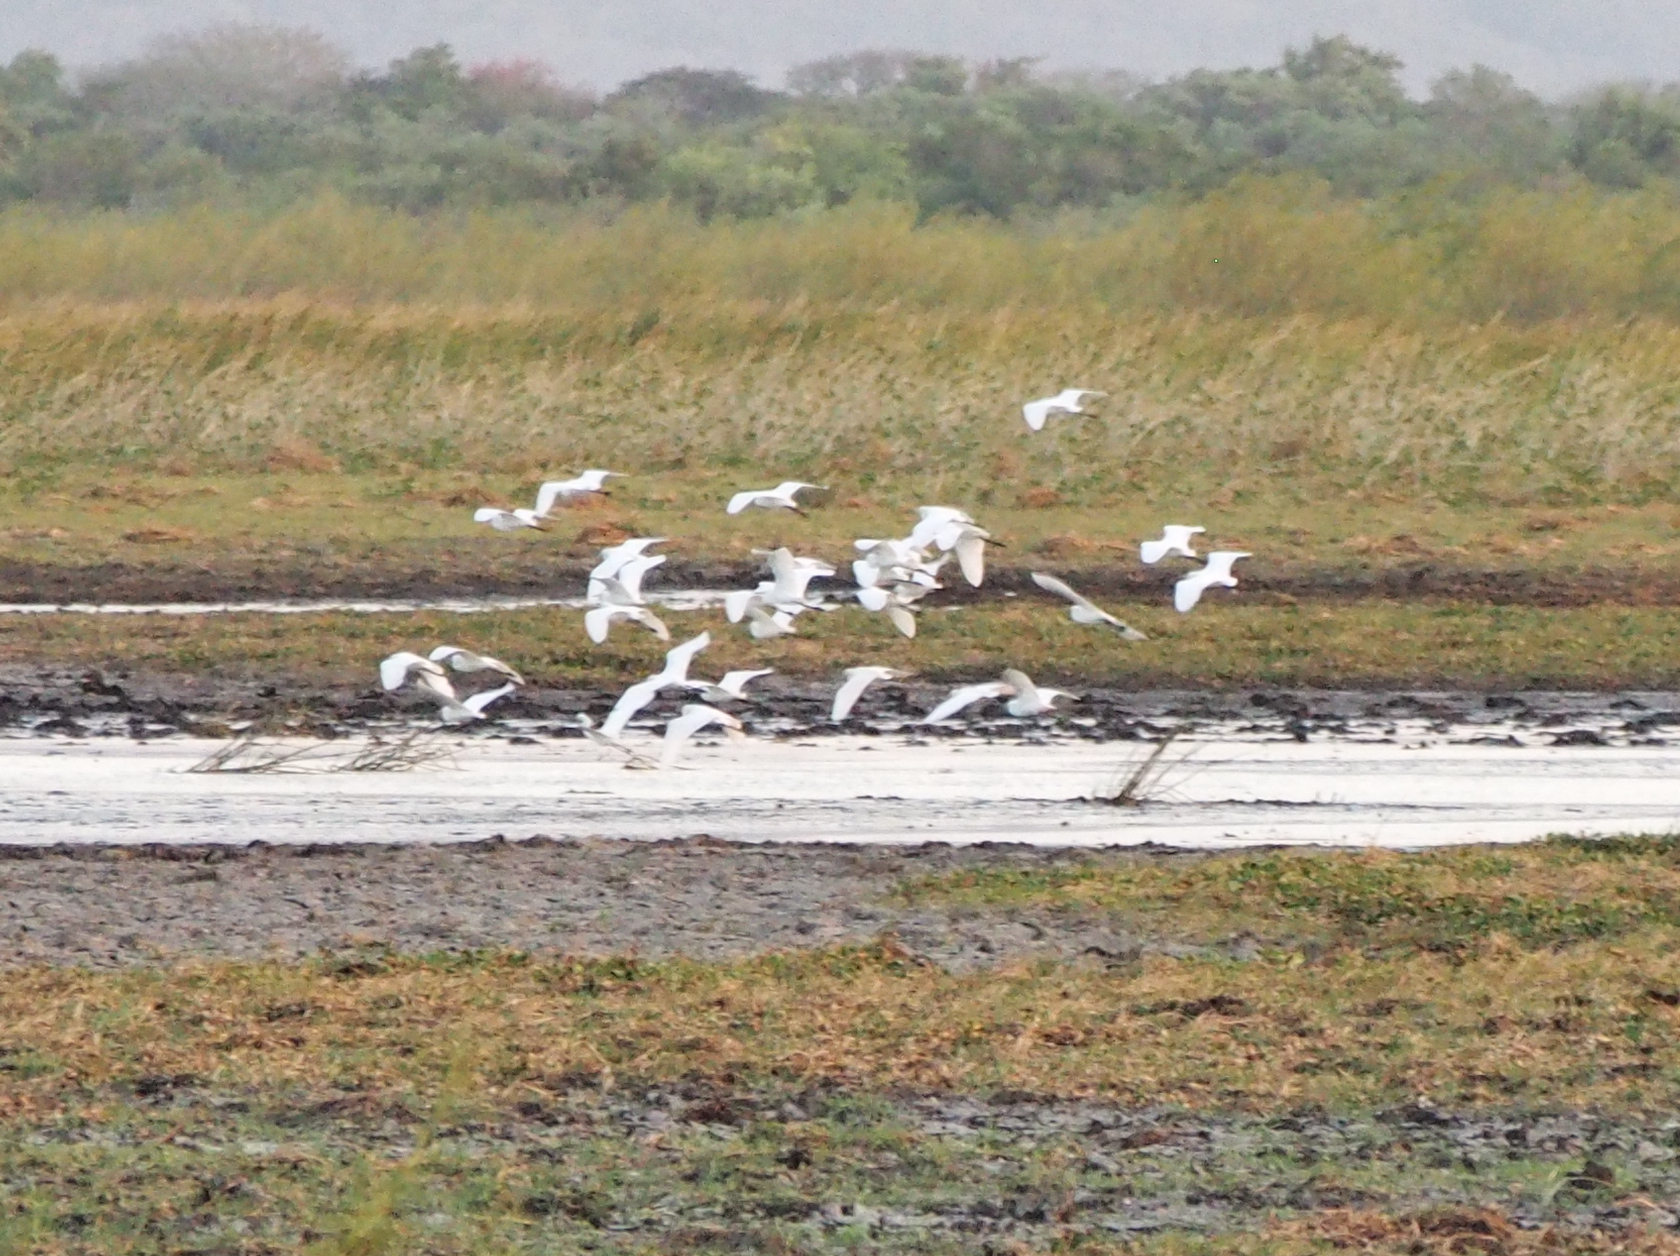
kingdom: Animalia
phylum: Chordata
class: Aves
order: Pelecaniformes
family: Ardeidae
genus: Bubulcus
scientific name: Bubulcus ibis
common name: Cattle egret
